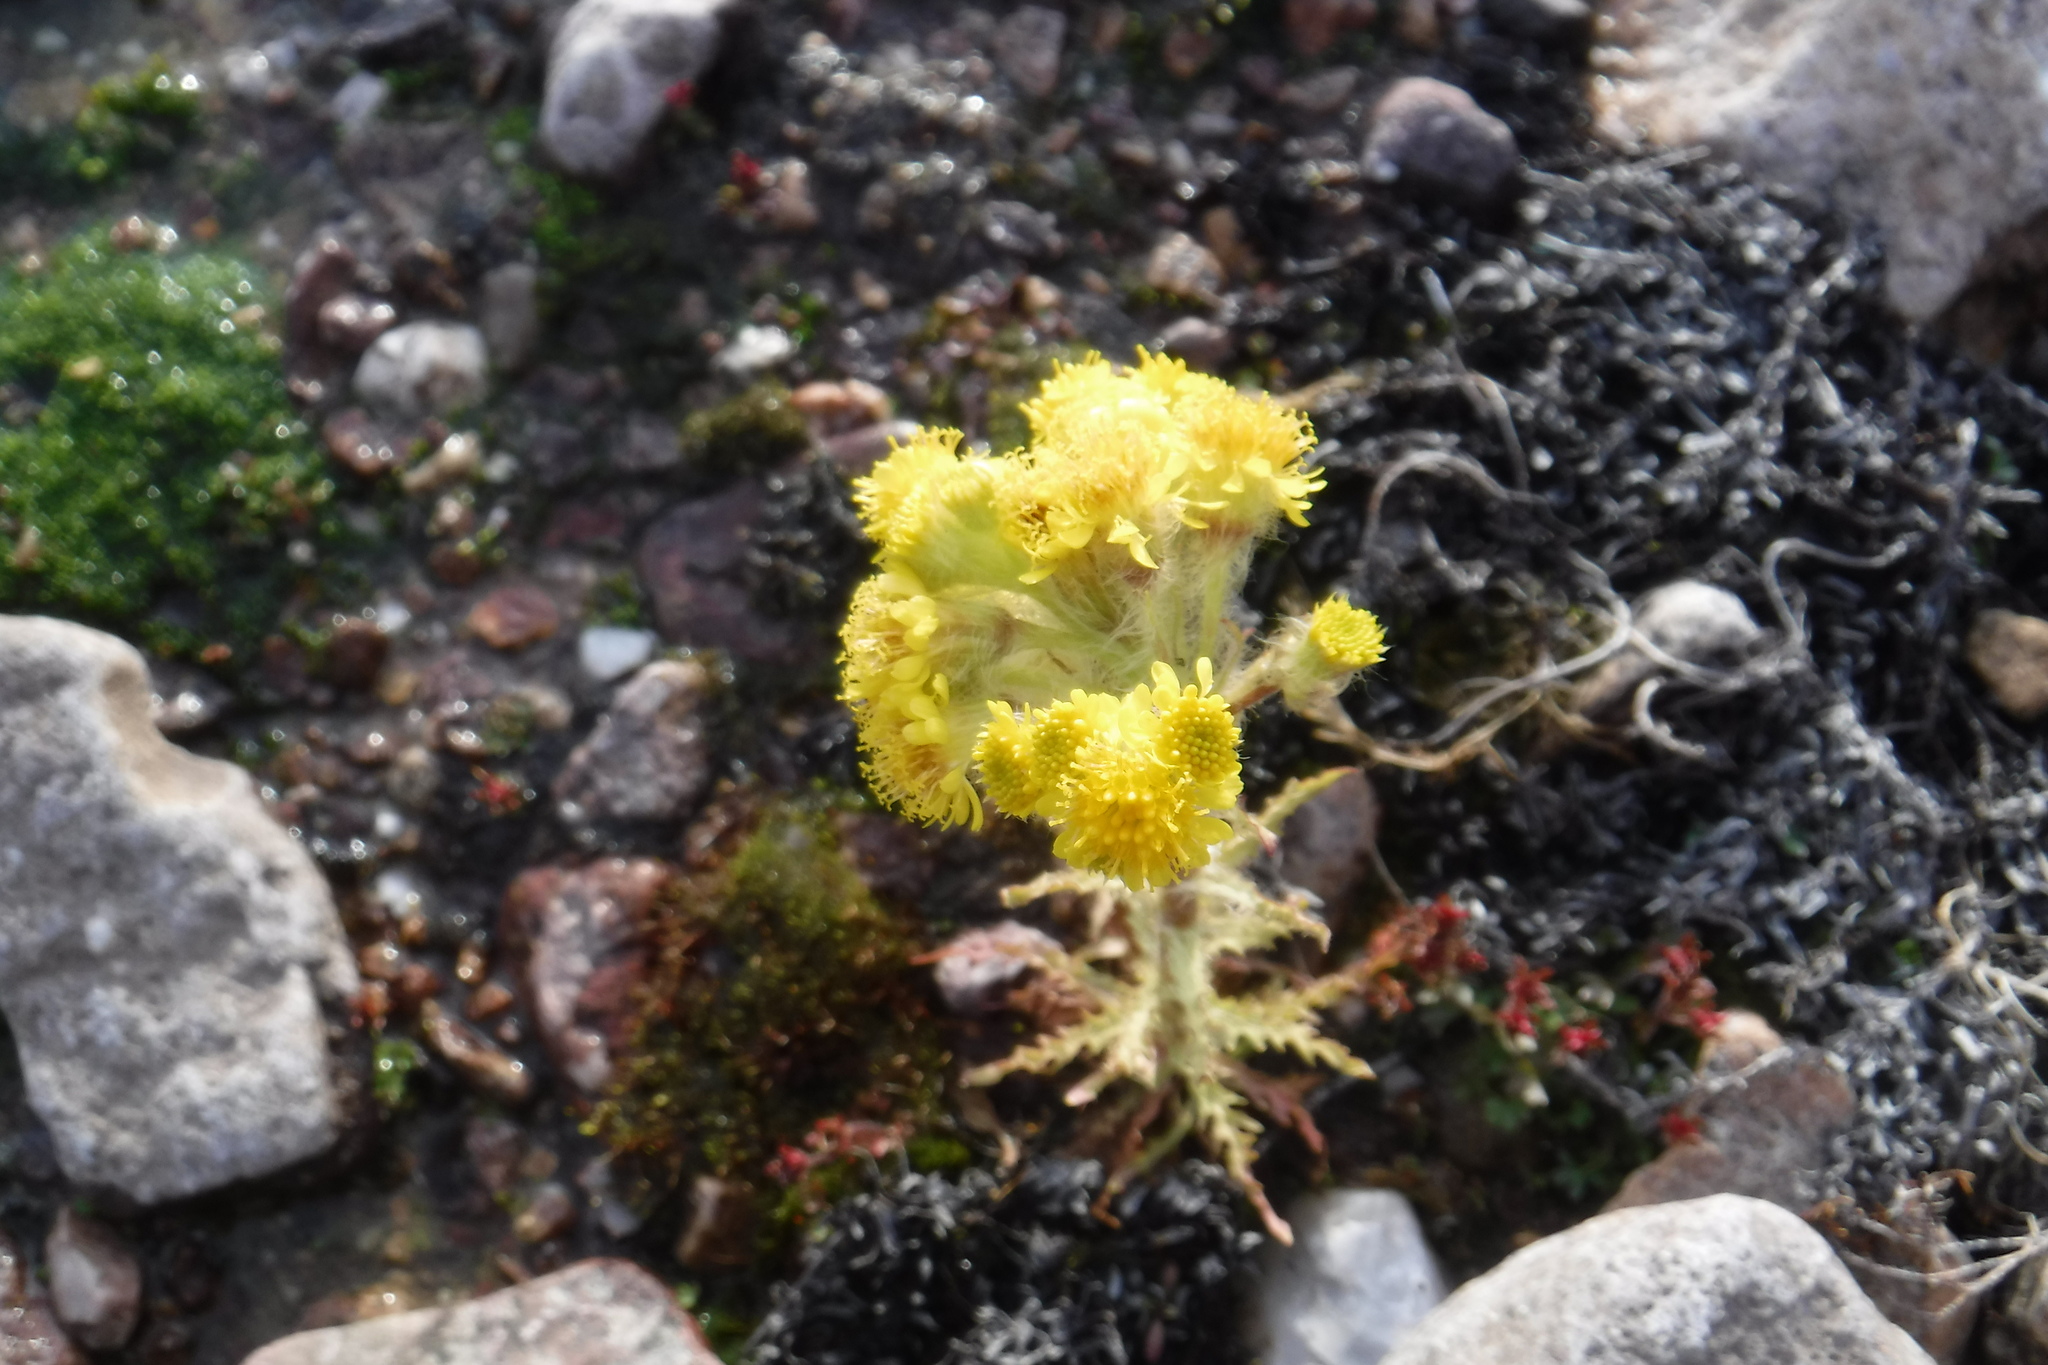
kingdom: Plantae
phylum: Tracheophyta
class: Magnoliopsida
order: Asterales
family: Asteraceae
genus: Tephroseris
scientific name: Tephroseris palustris
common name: Marsh fleawort
